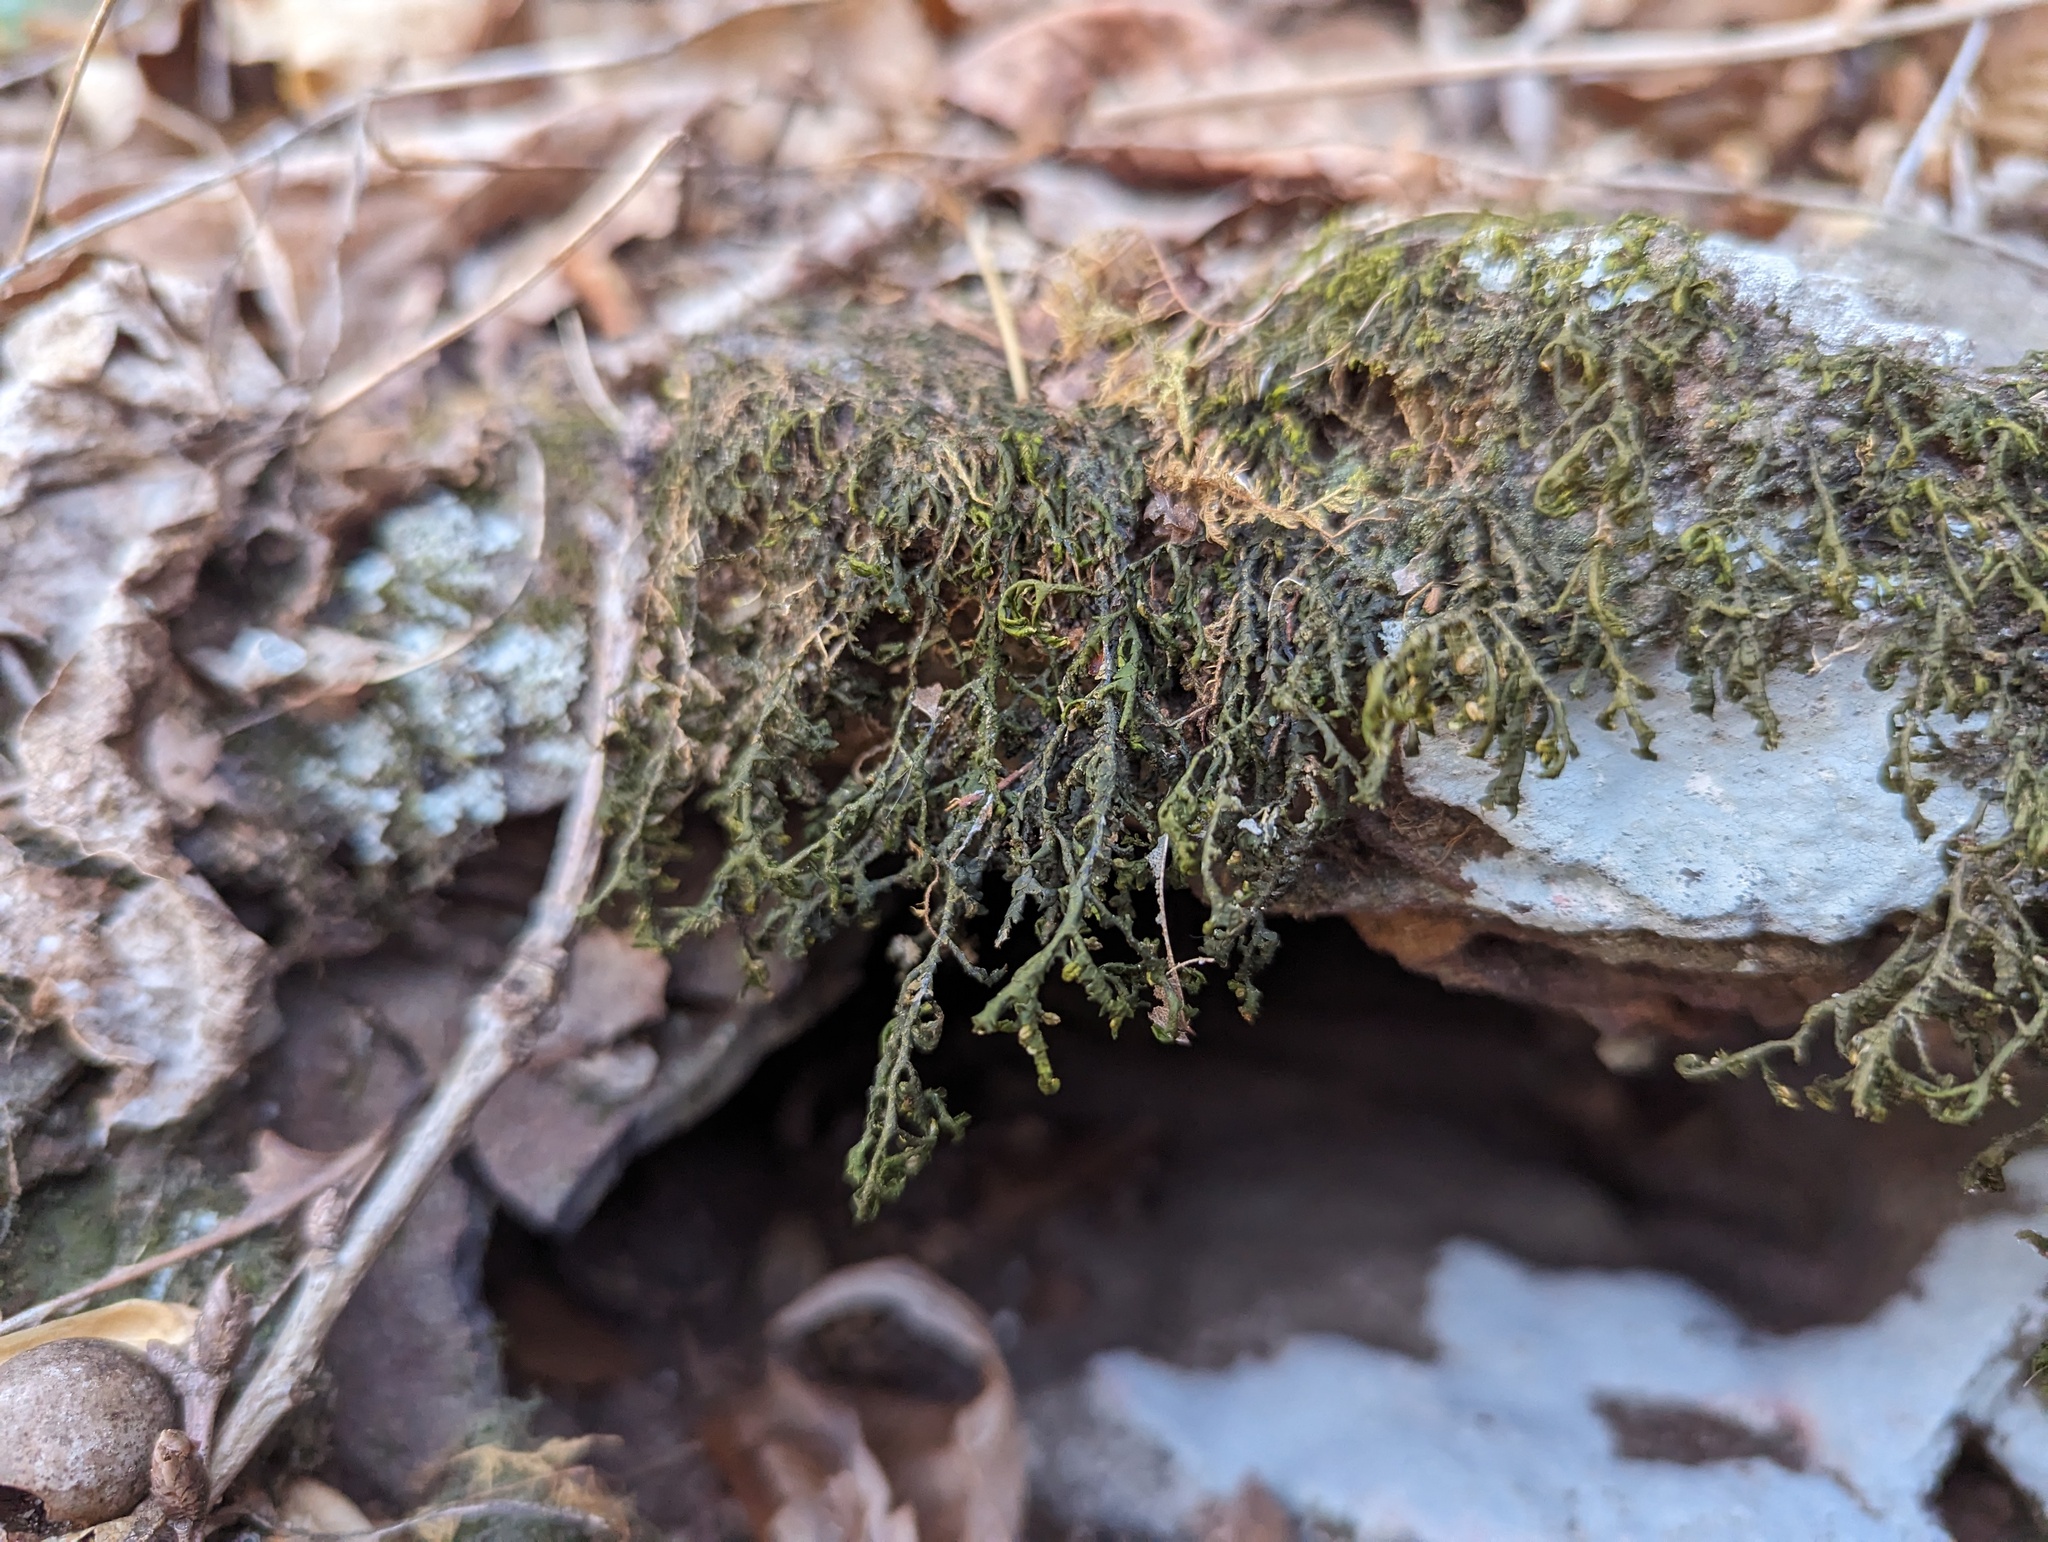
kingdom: Plantae
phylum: Marchantiophyta
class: Jungermanniopsida
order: Porellales
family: Porellaceae
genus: Porella
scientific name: Porella pinnata
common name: Pinnate scalewort
